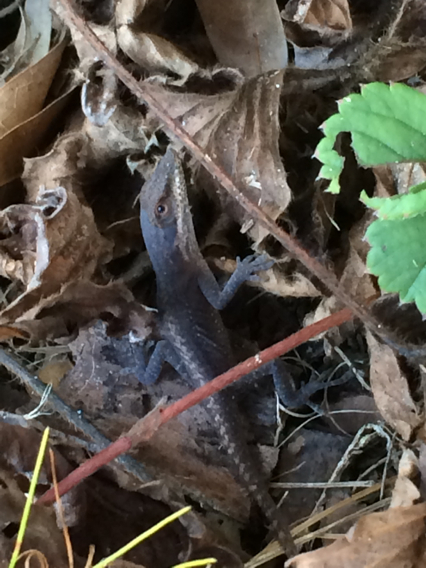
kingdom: Animalia
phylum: Chordata
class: Squamata
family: Dactyloidae
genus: Anolis
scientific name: Anolis carolinensis
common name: Green anole
